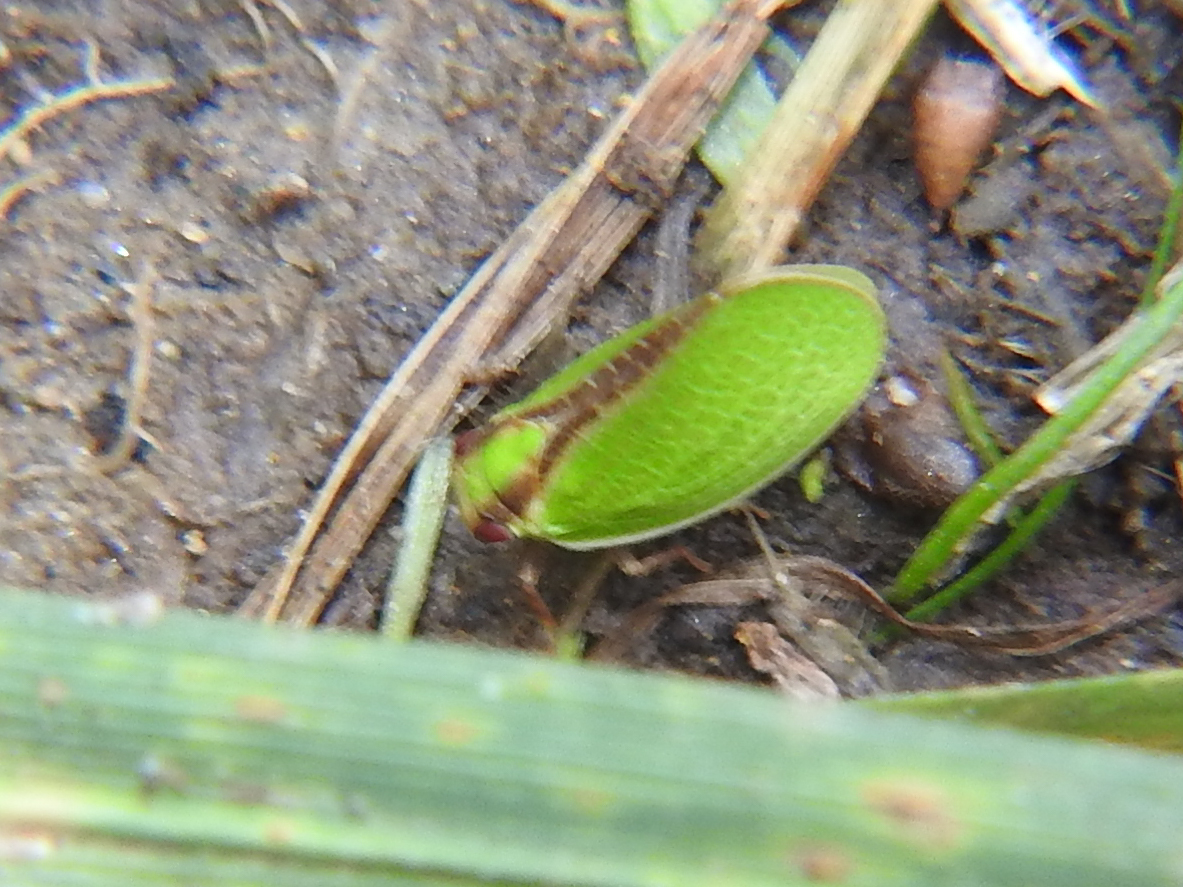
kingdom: Animalia
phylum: Arthropoda
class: Insecta
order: Hemiptera
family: Acanaloniidae
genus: Acanalonia
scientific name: Acanalonia bivittata
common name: Two-striped planthopper
